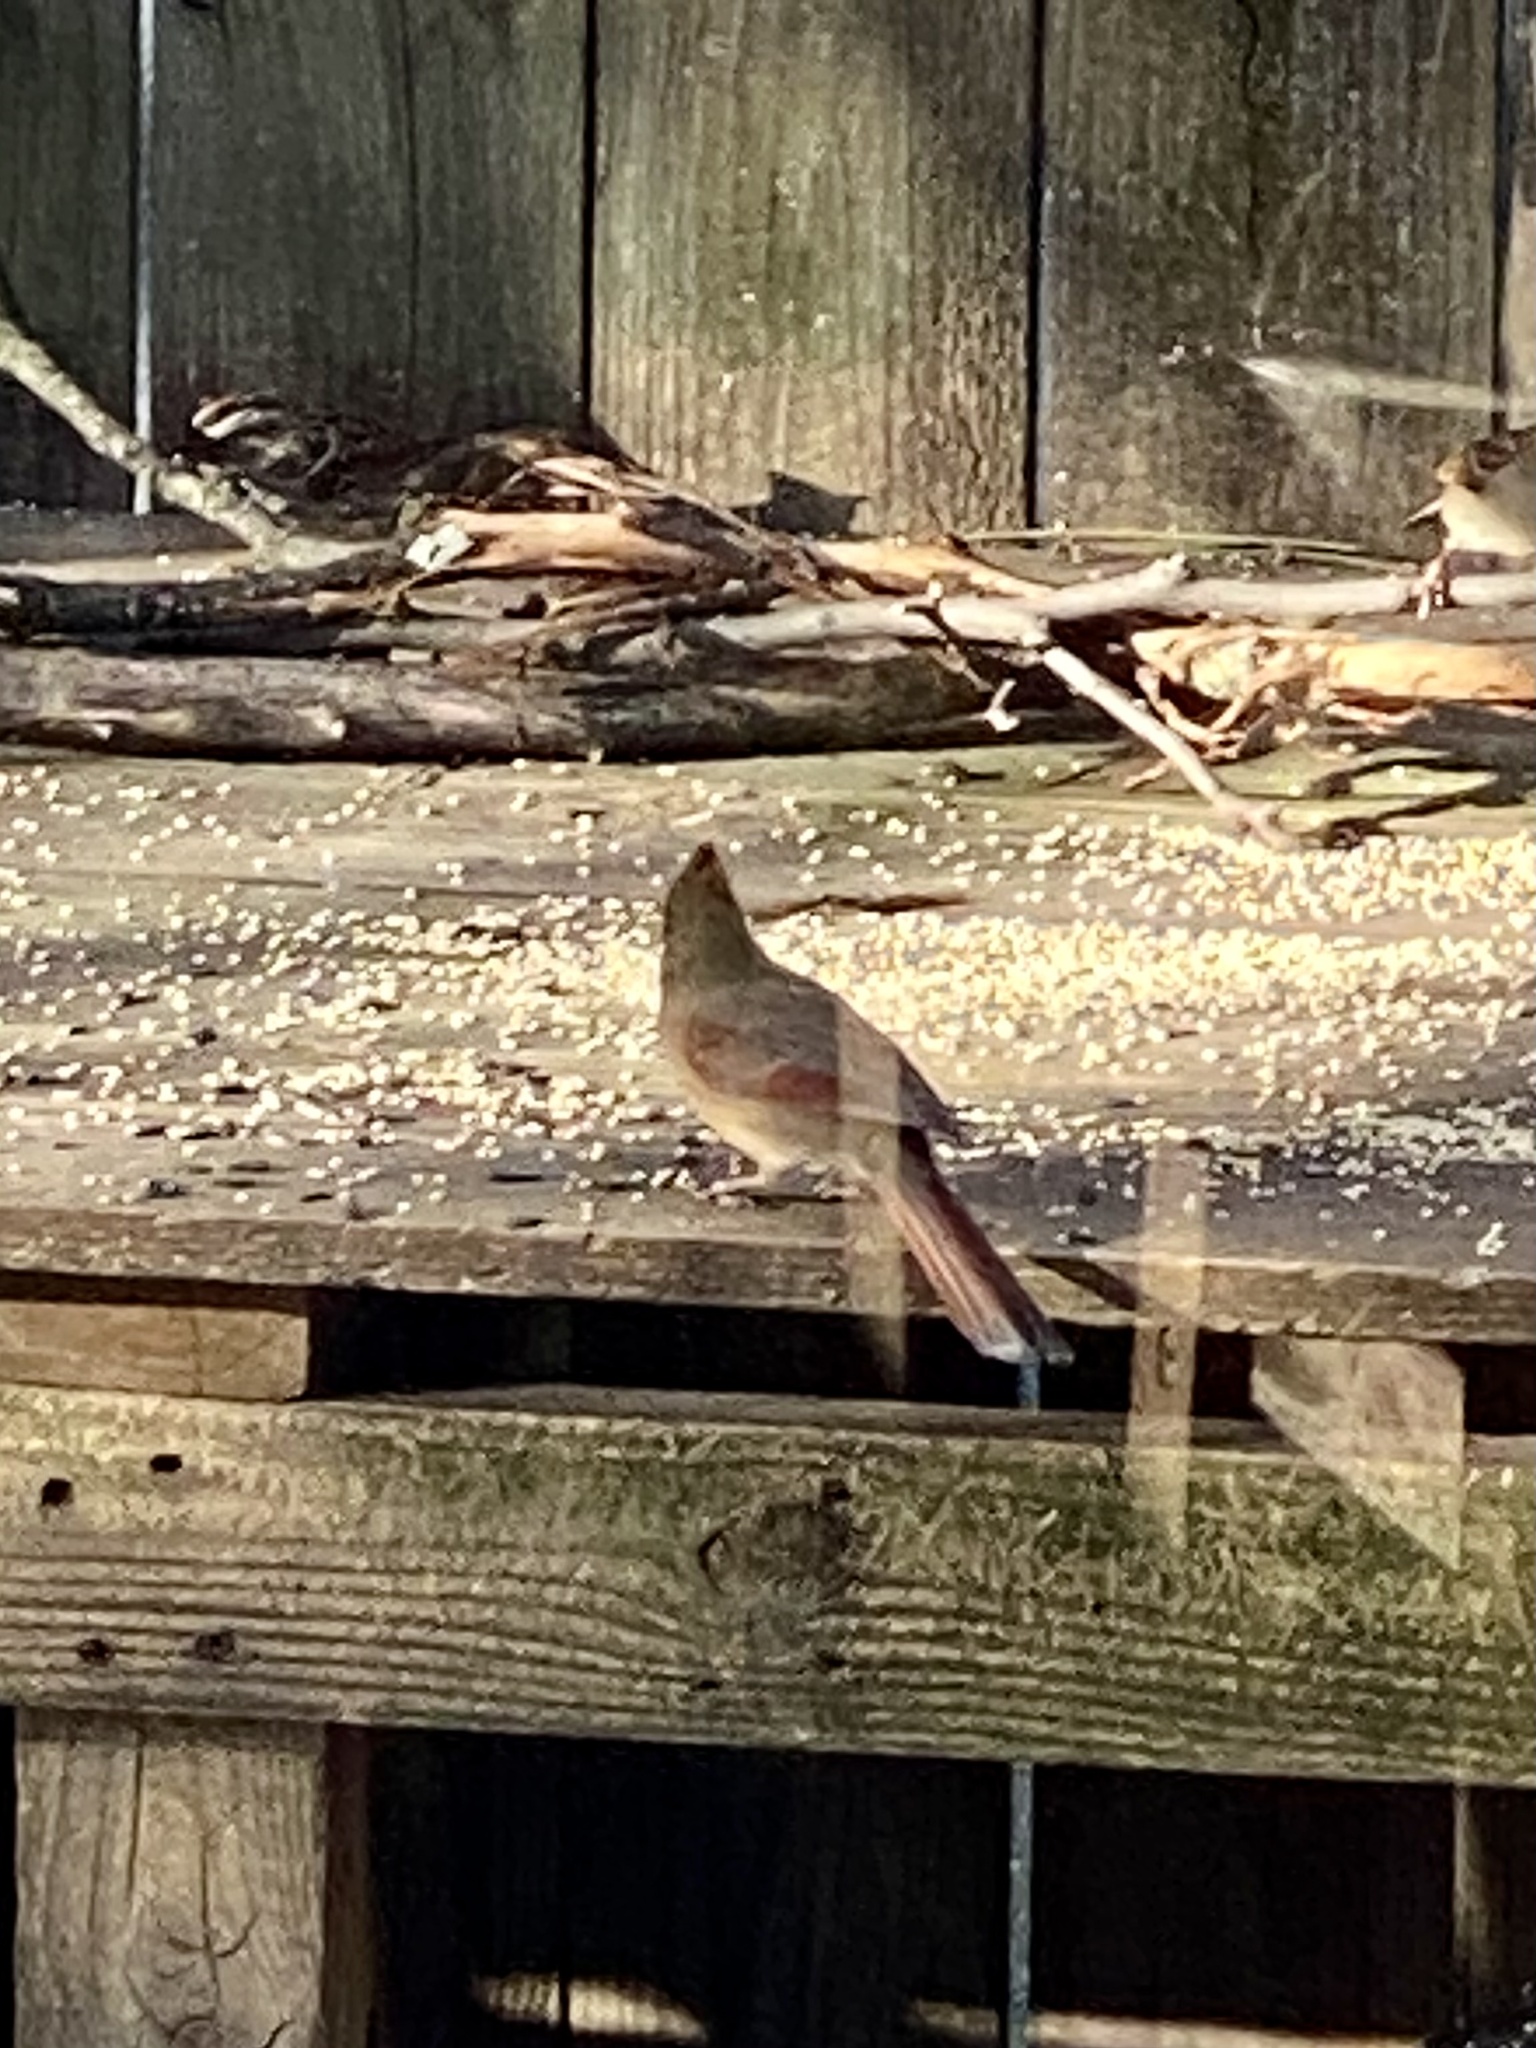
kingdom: Animalia
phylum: Chordata
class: Aves
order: Passeriformes
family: Cardinalidae
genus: Cardinalis
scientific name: Cardinalis cardinalis
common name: Northern cardinal
